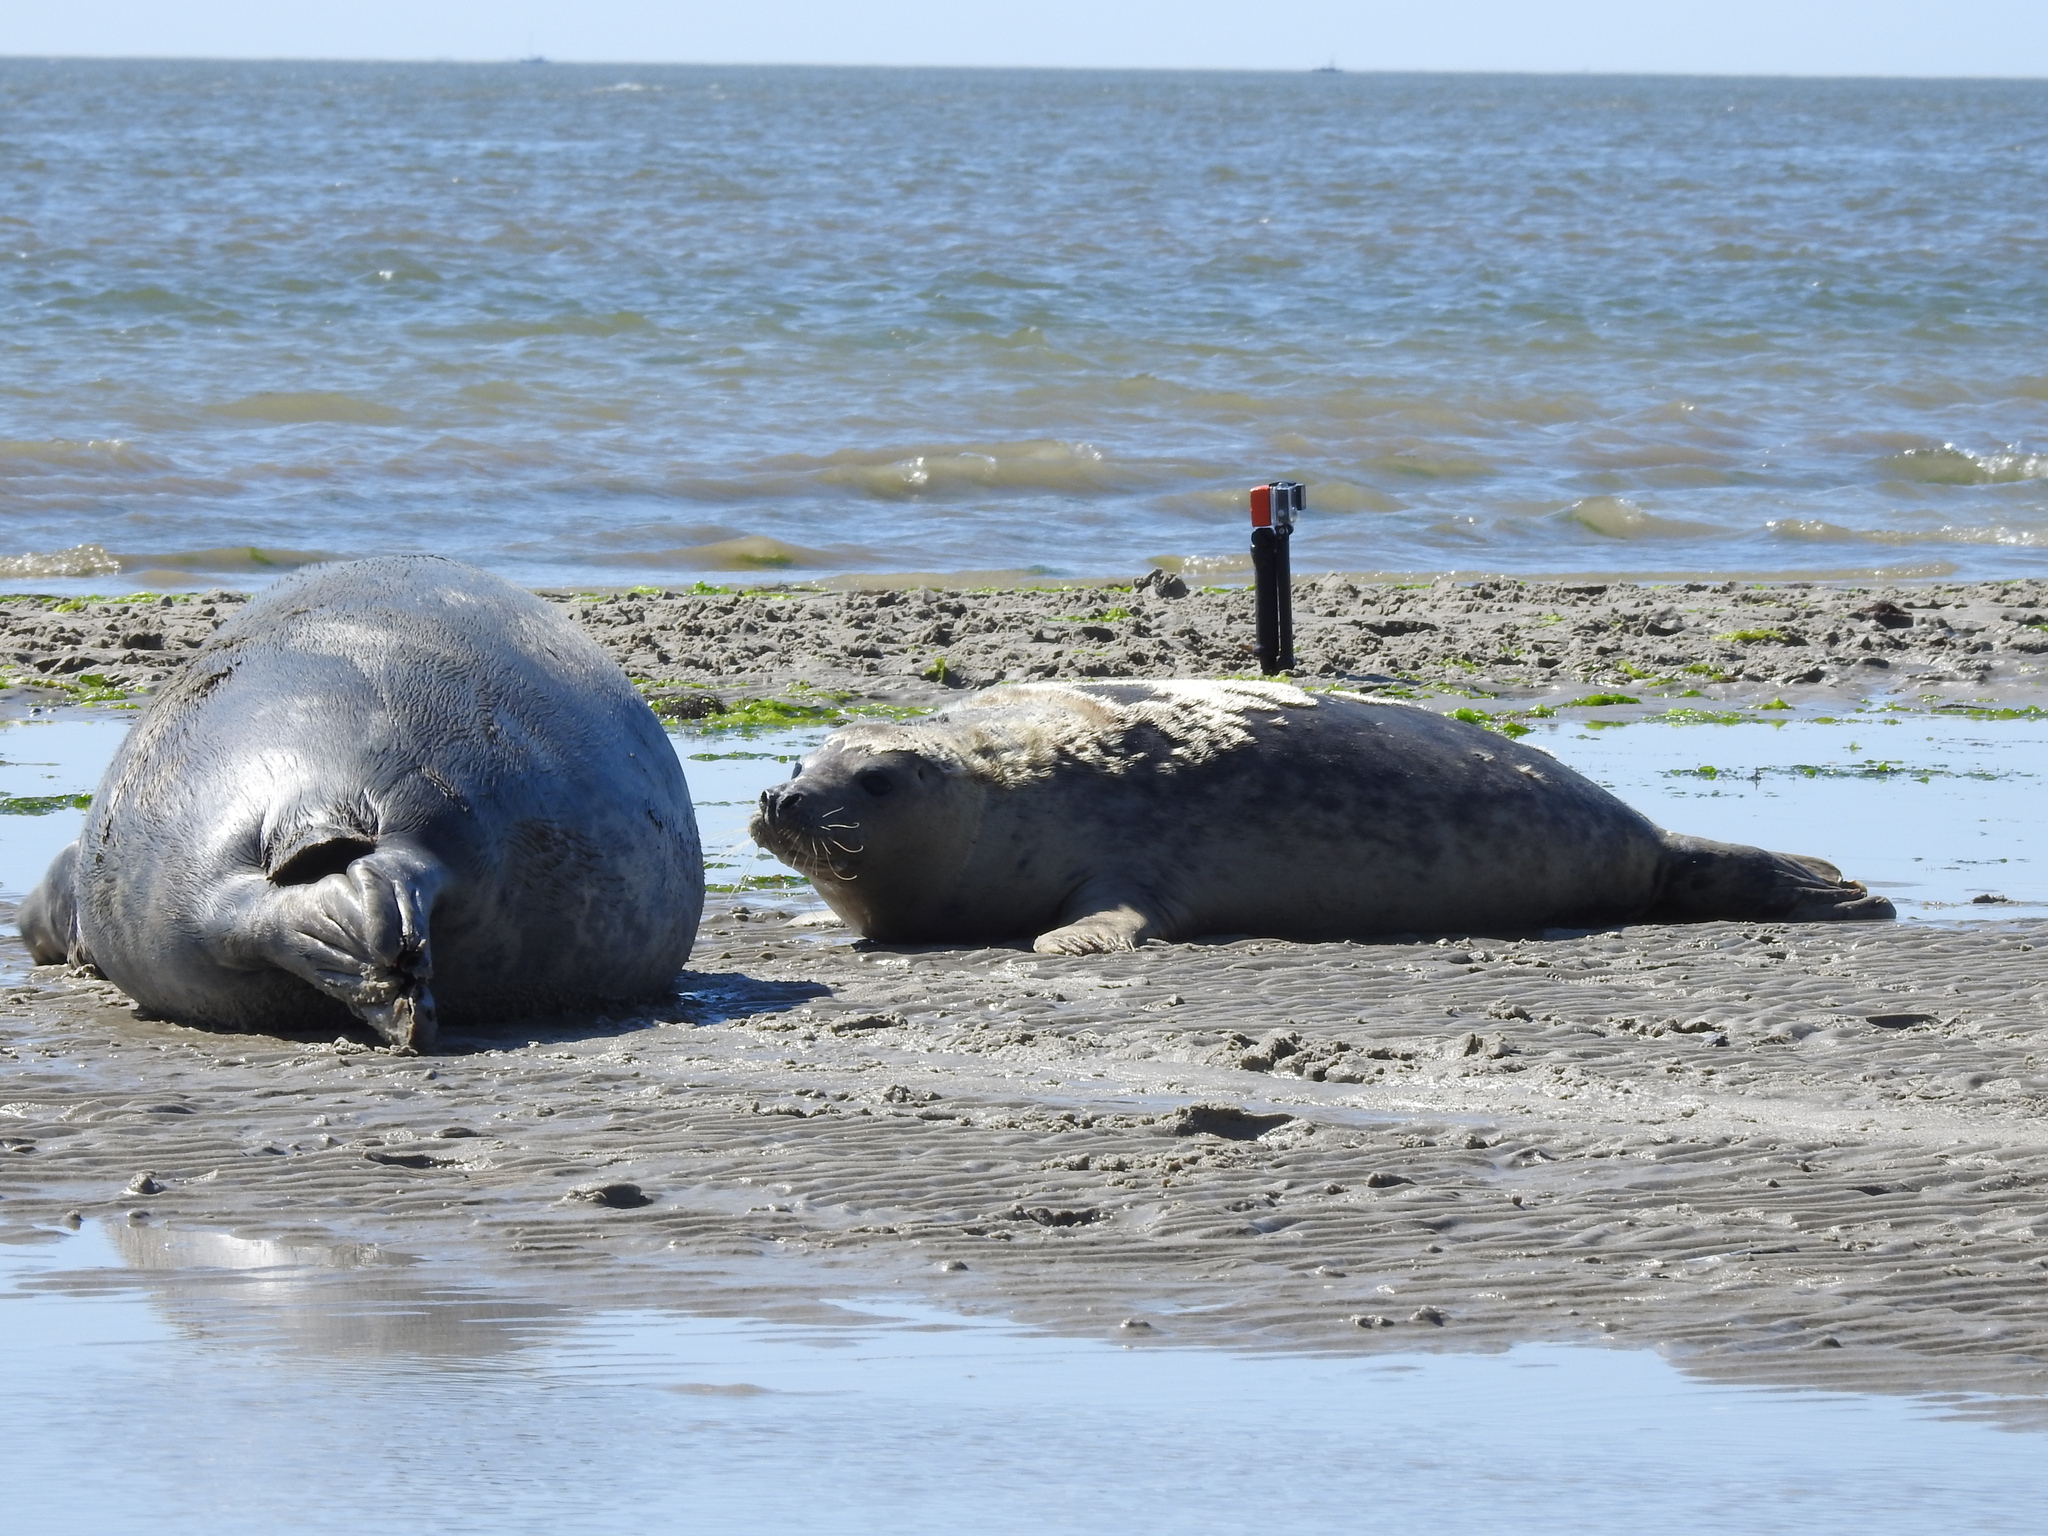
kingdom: Animalia
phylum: Chordata
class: Mammalia
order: Carnivora
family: Phocidae
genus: Halichoerus
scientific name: Halichoerus grypus
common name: Grey seal
